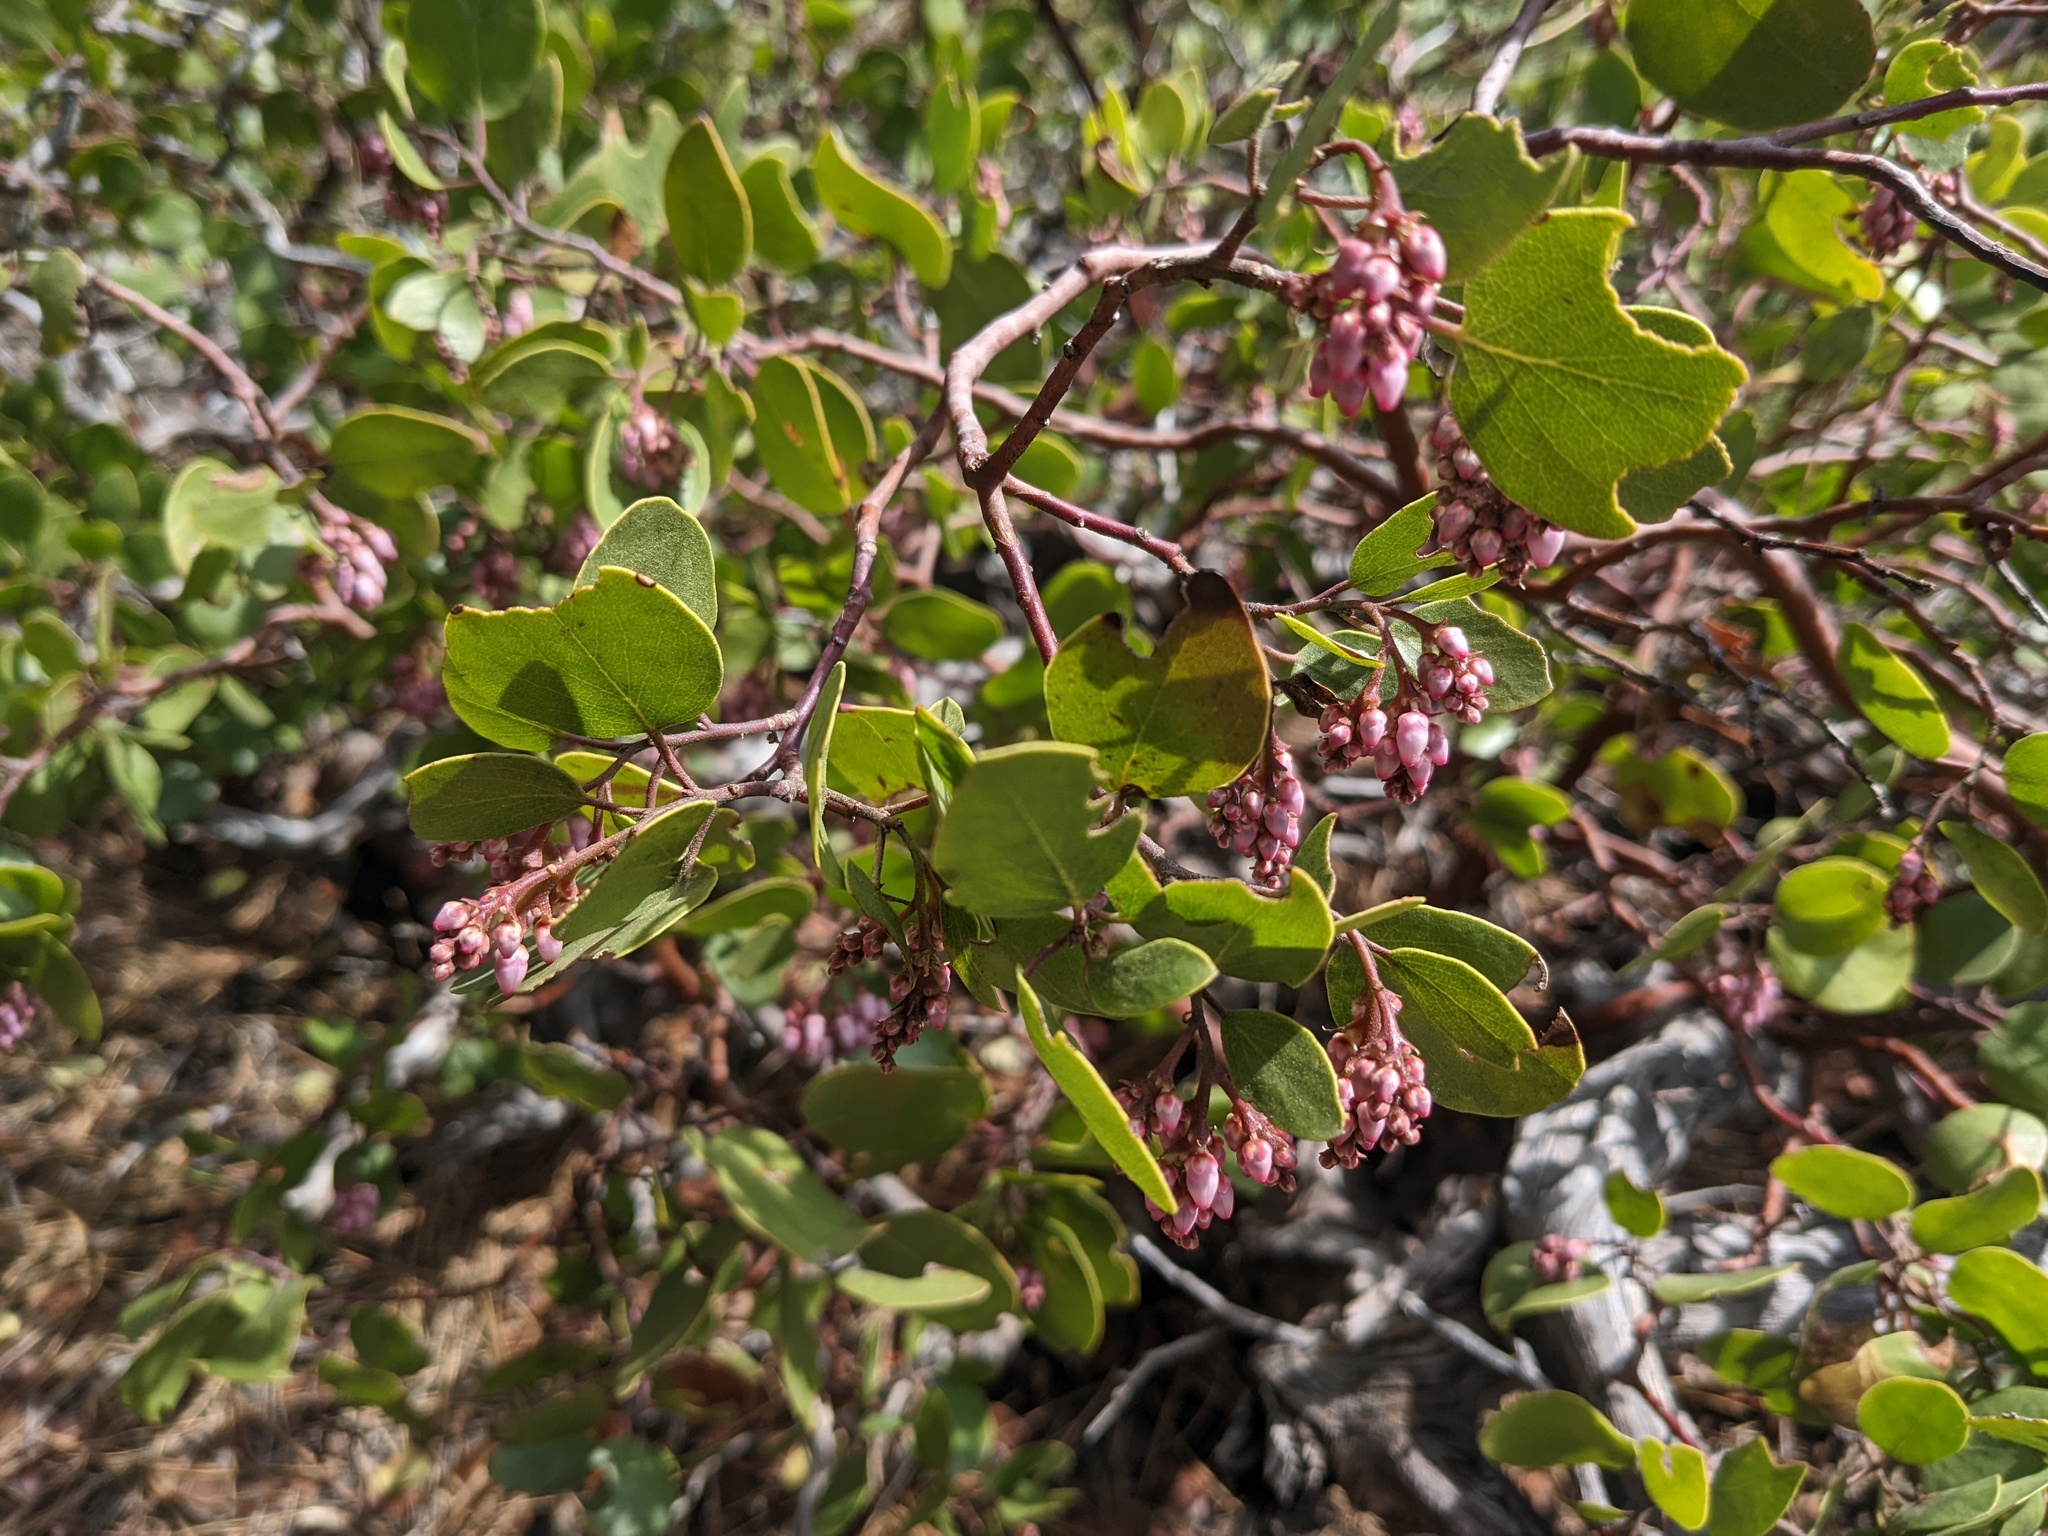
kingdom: Plantae
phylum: Tracheophyta
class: Magnoliopsida
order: Ericales
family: Ericaceae
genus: Arctostaphylos
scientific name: Arctostaphylos patula
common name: Green-leaf manzanita
